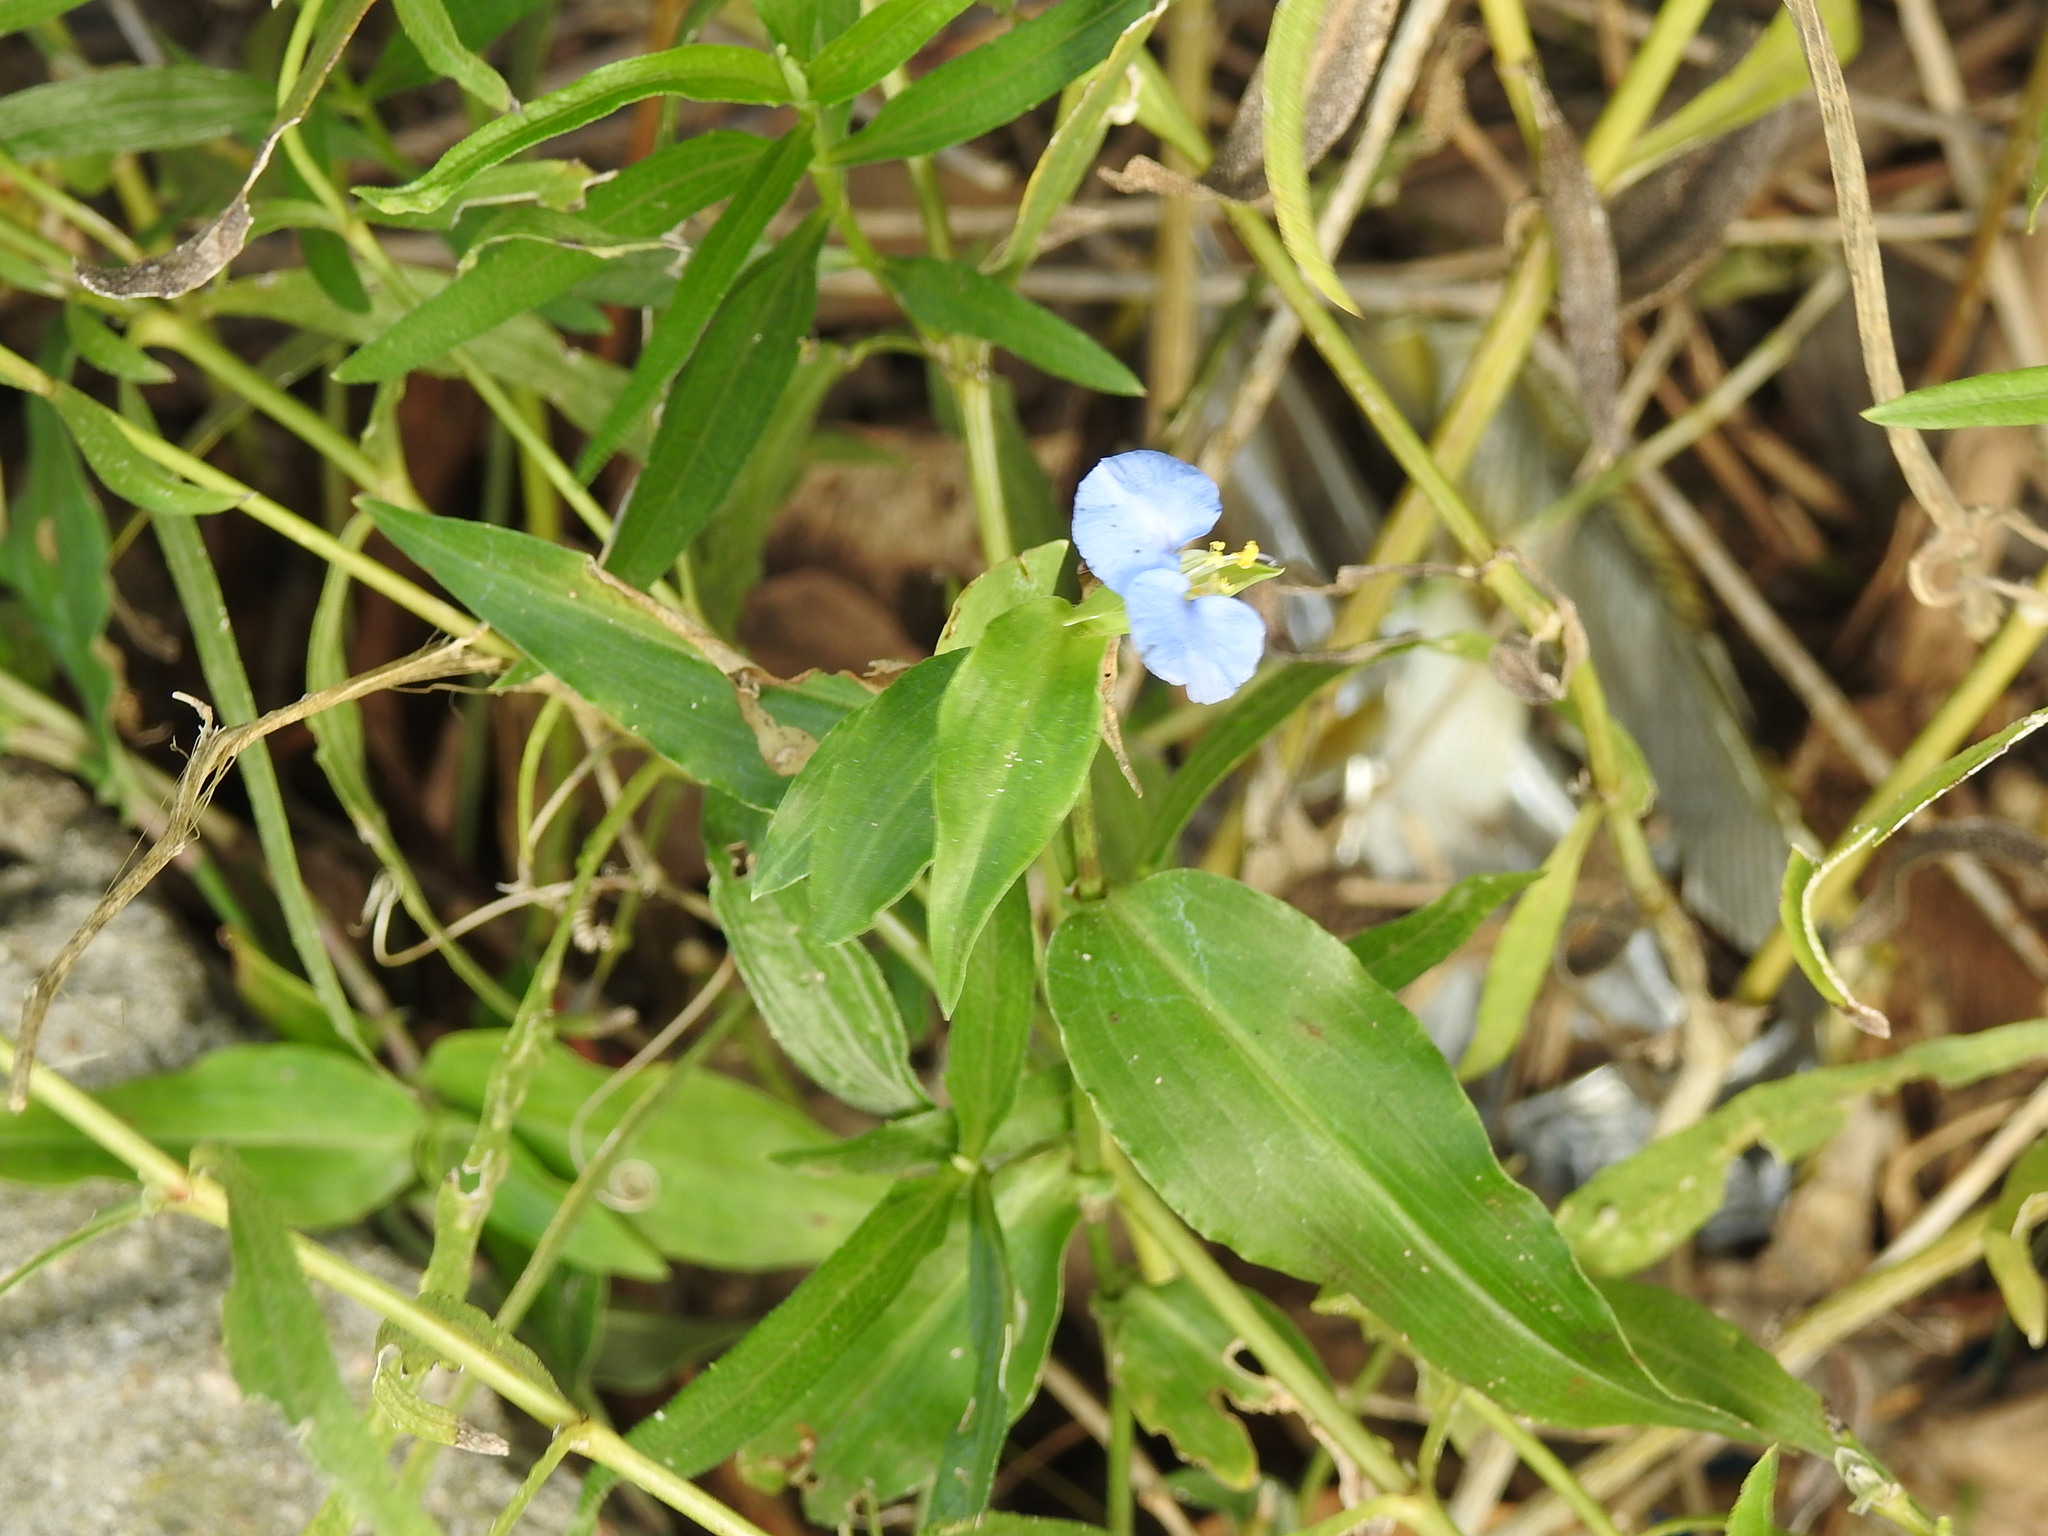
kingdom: Plantae
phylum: Tracheophyta
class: Liliopsida
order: Commelinales
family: Commelinaceae
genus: Commelina
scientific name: Commelina erecta
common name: Blousel blommetjie
